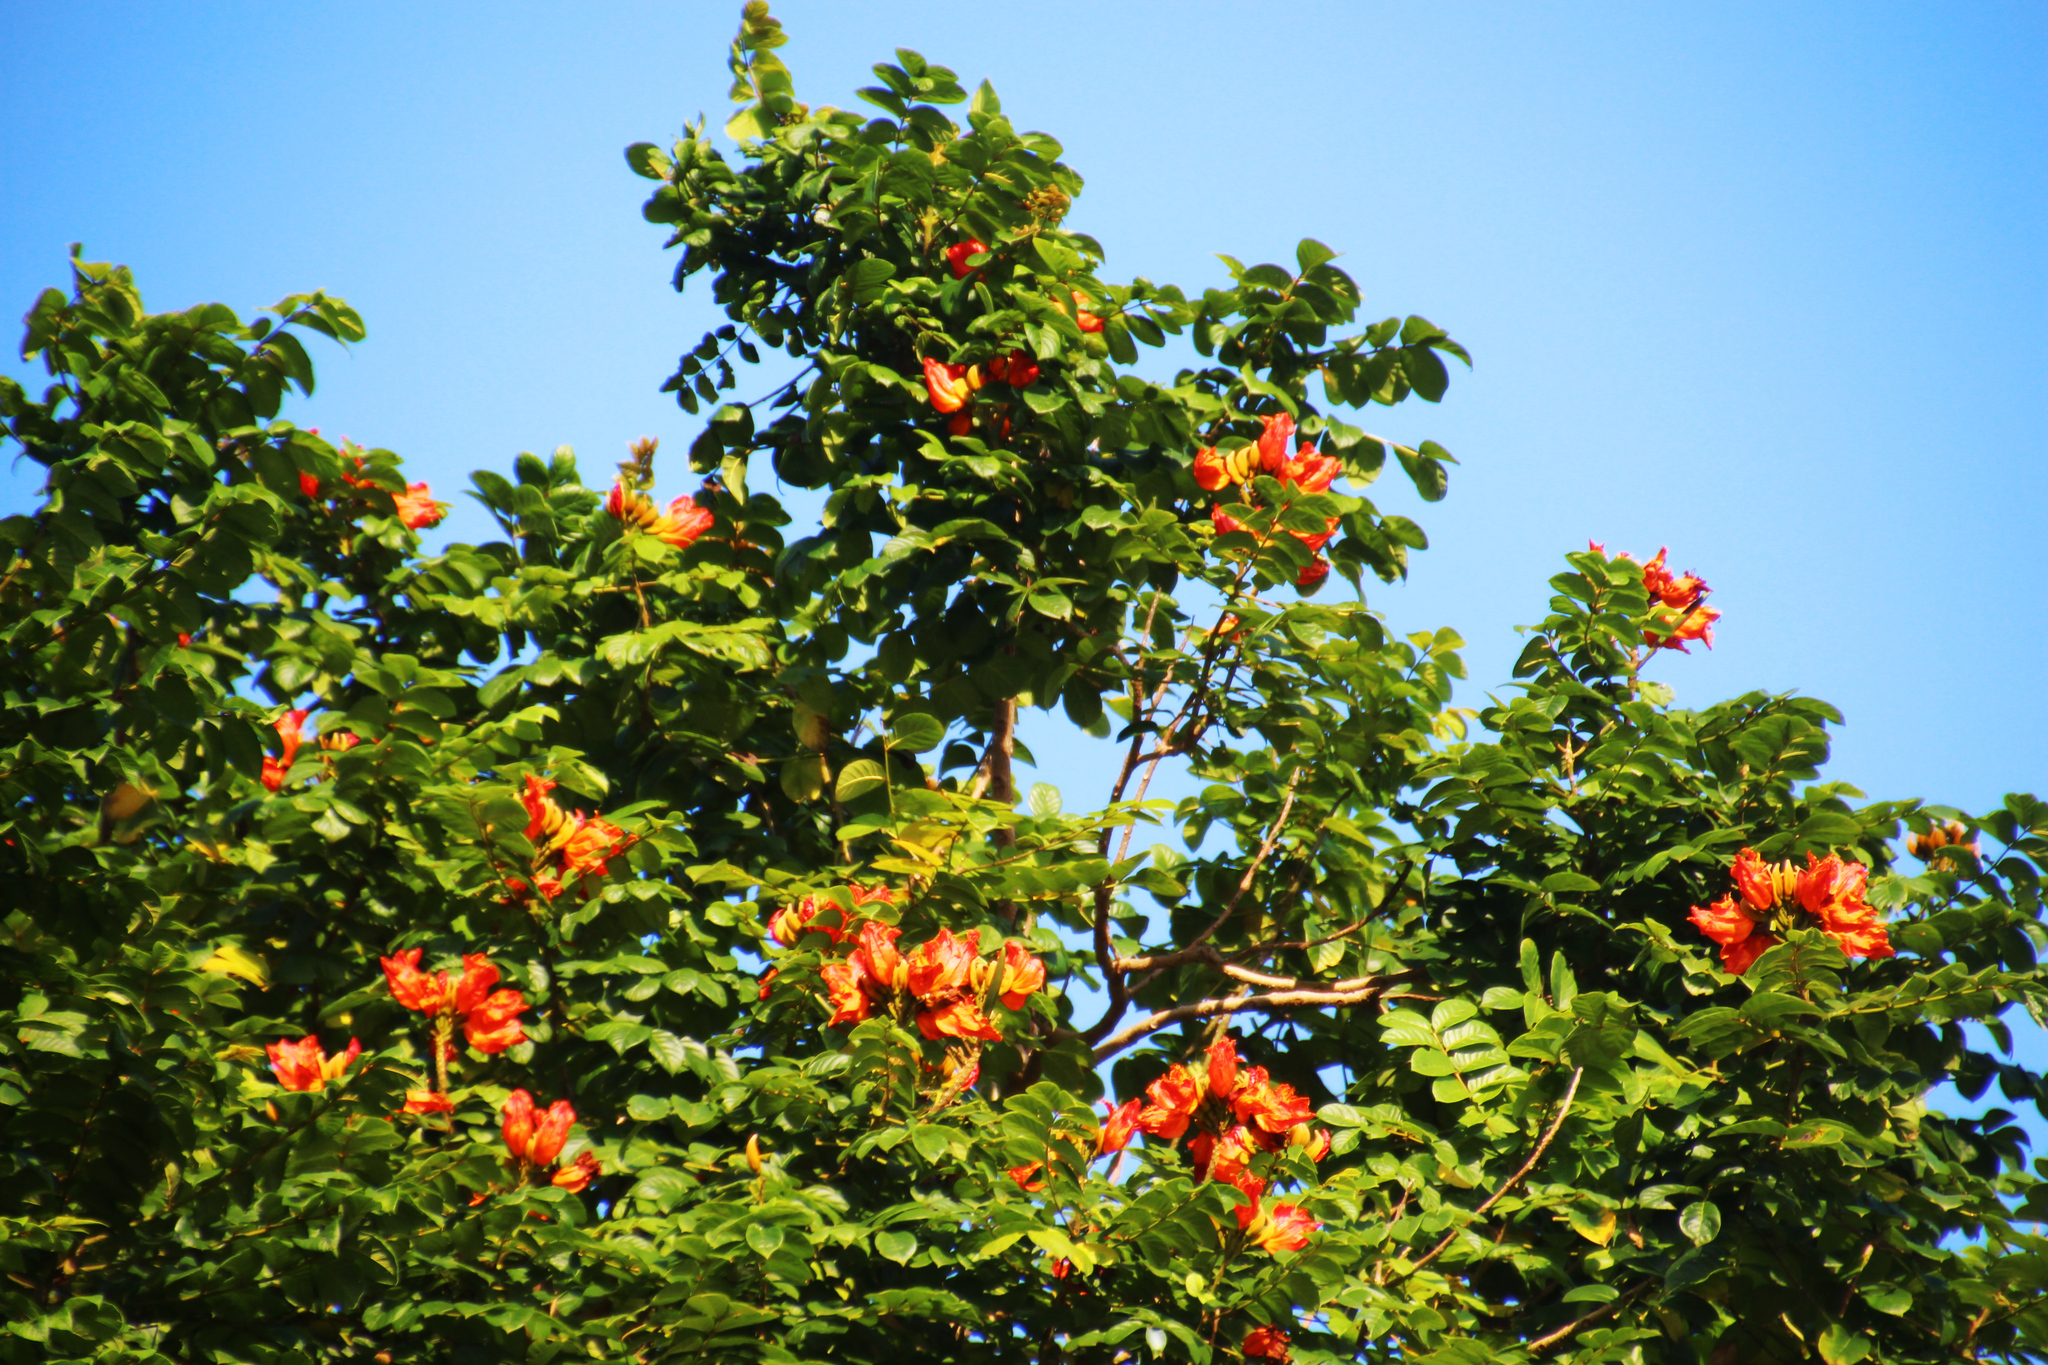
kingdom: Plantae
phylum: Tracheophyta
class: Magnoliopsida
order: Lamiales
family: Bignoniaceae
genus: Spathodea
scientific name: Spathodea campanulata
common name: African tuliptree
